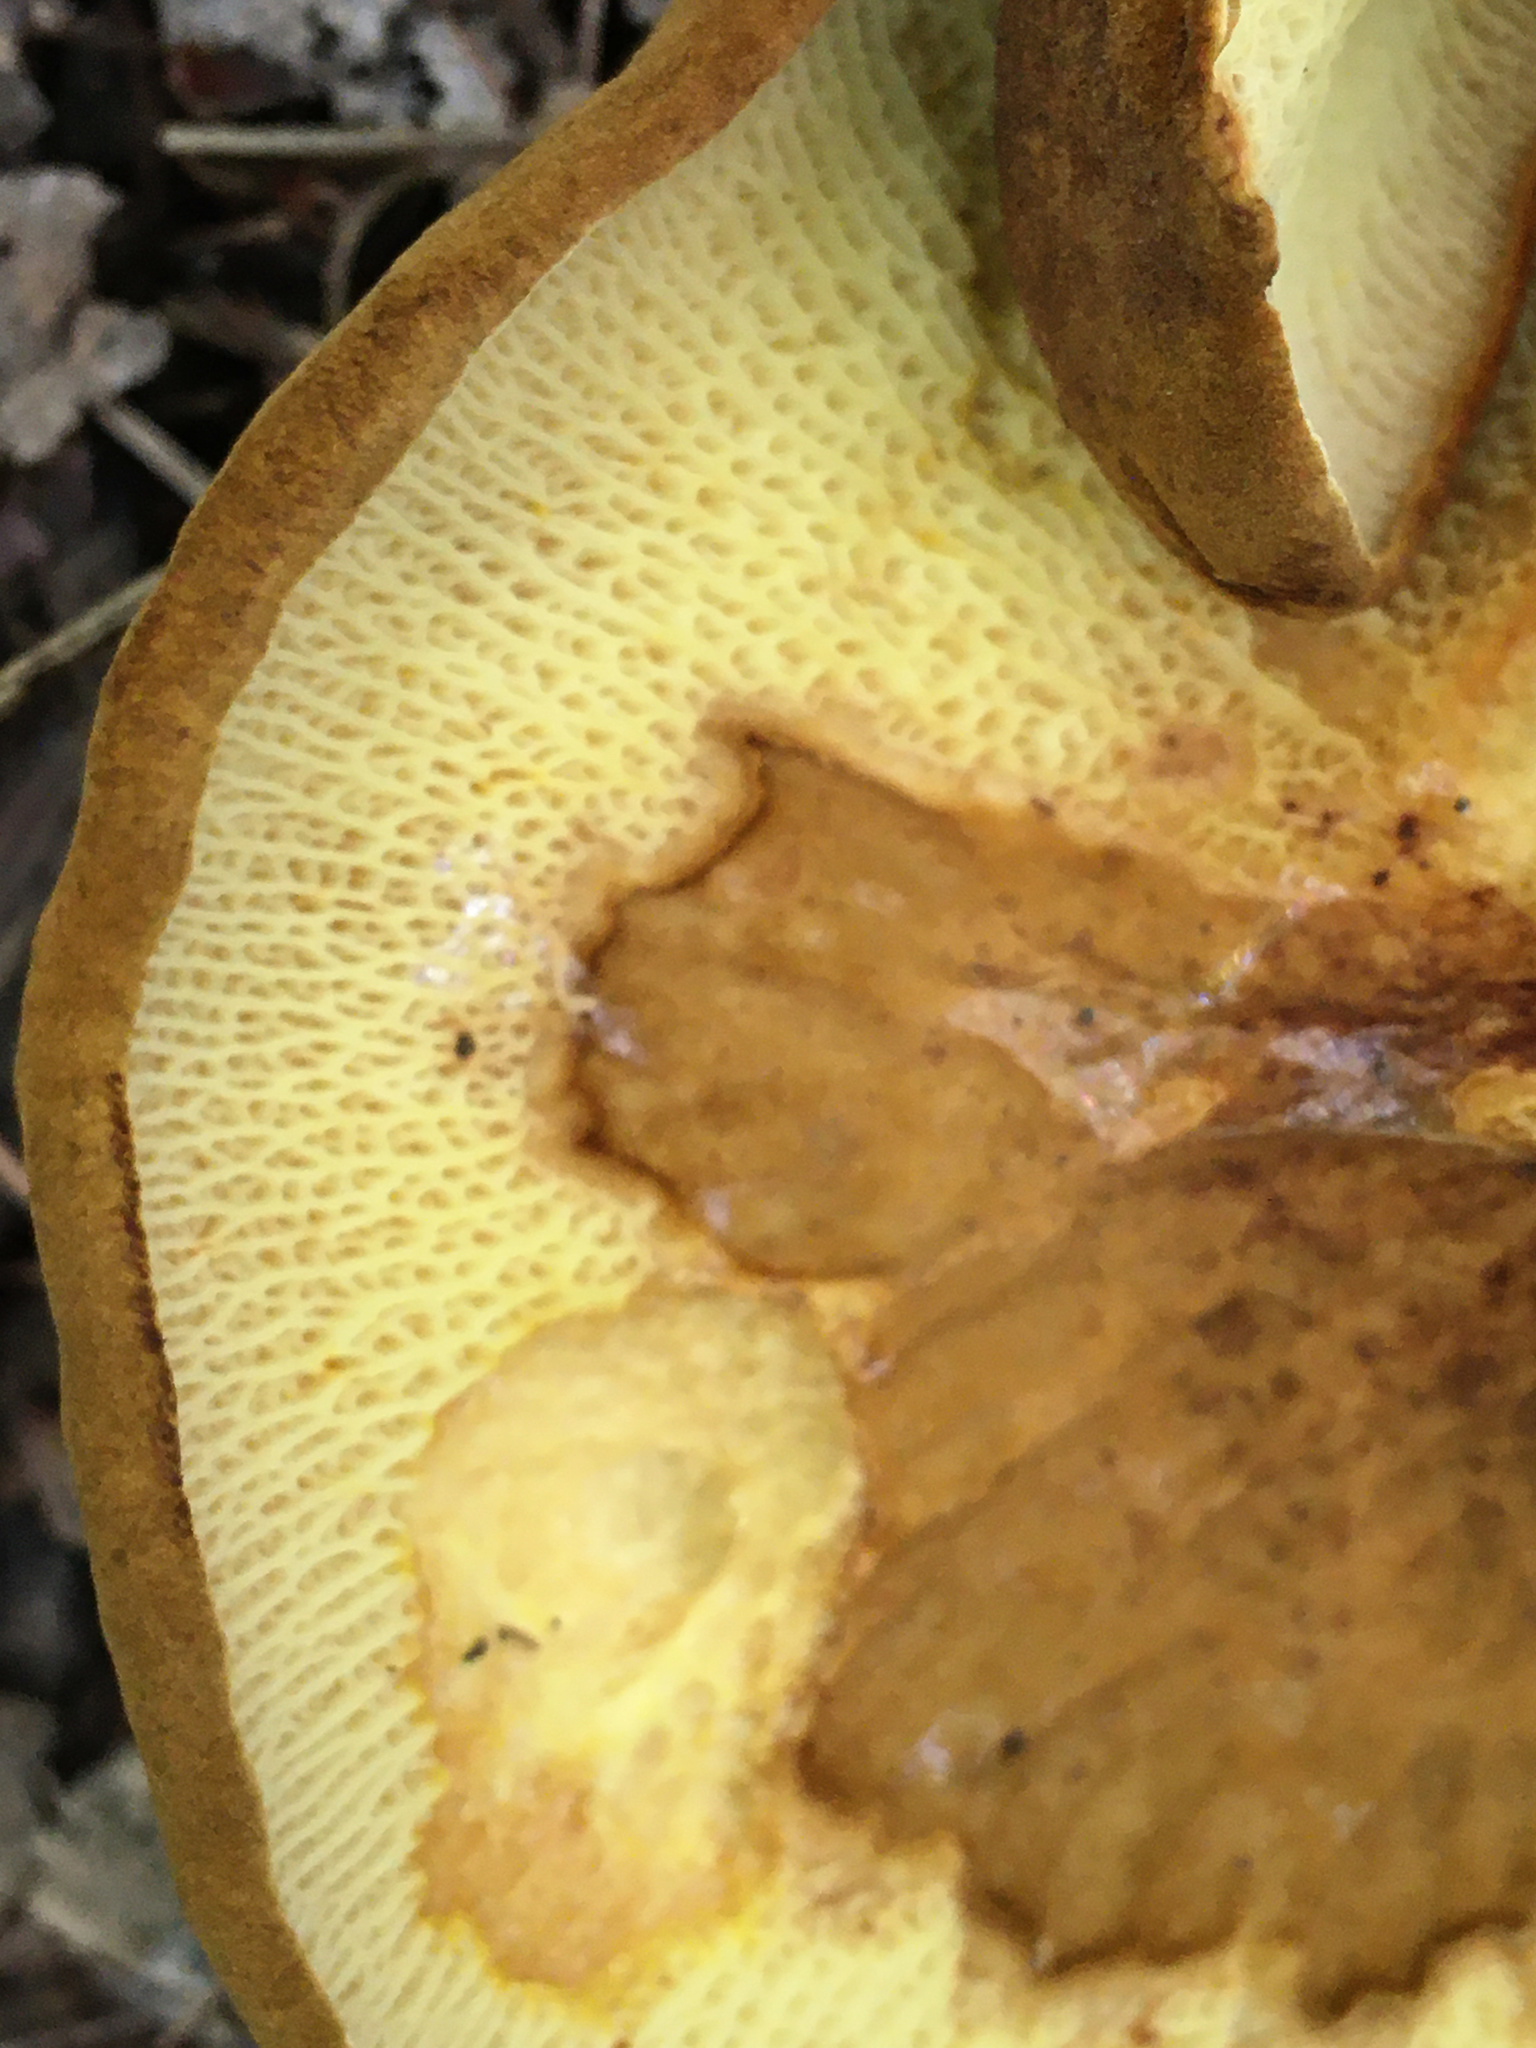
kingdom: Fungi
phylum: Basidiomycota
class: Agaricomycetes
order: Boletales
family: Boletinellaceae
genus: Boletinellus
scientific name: Boletinellus merulioides
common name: Ash tree bolete
